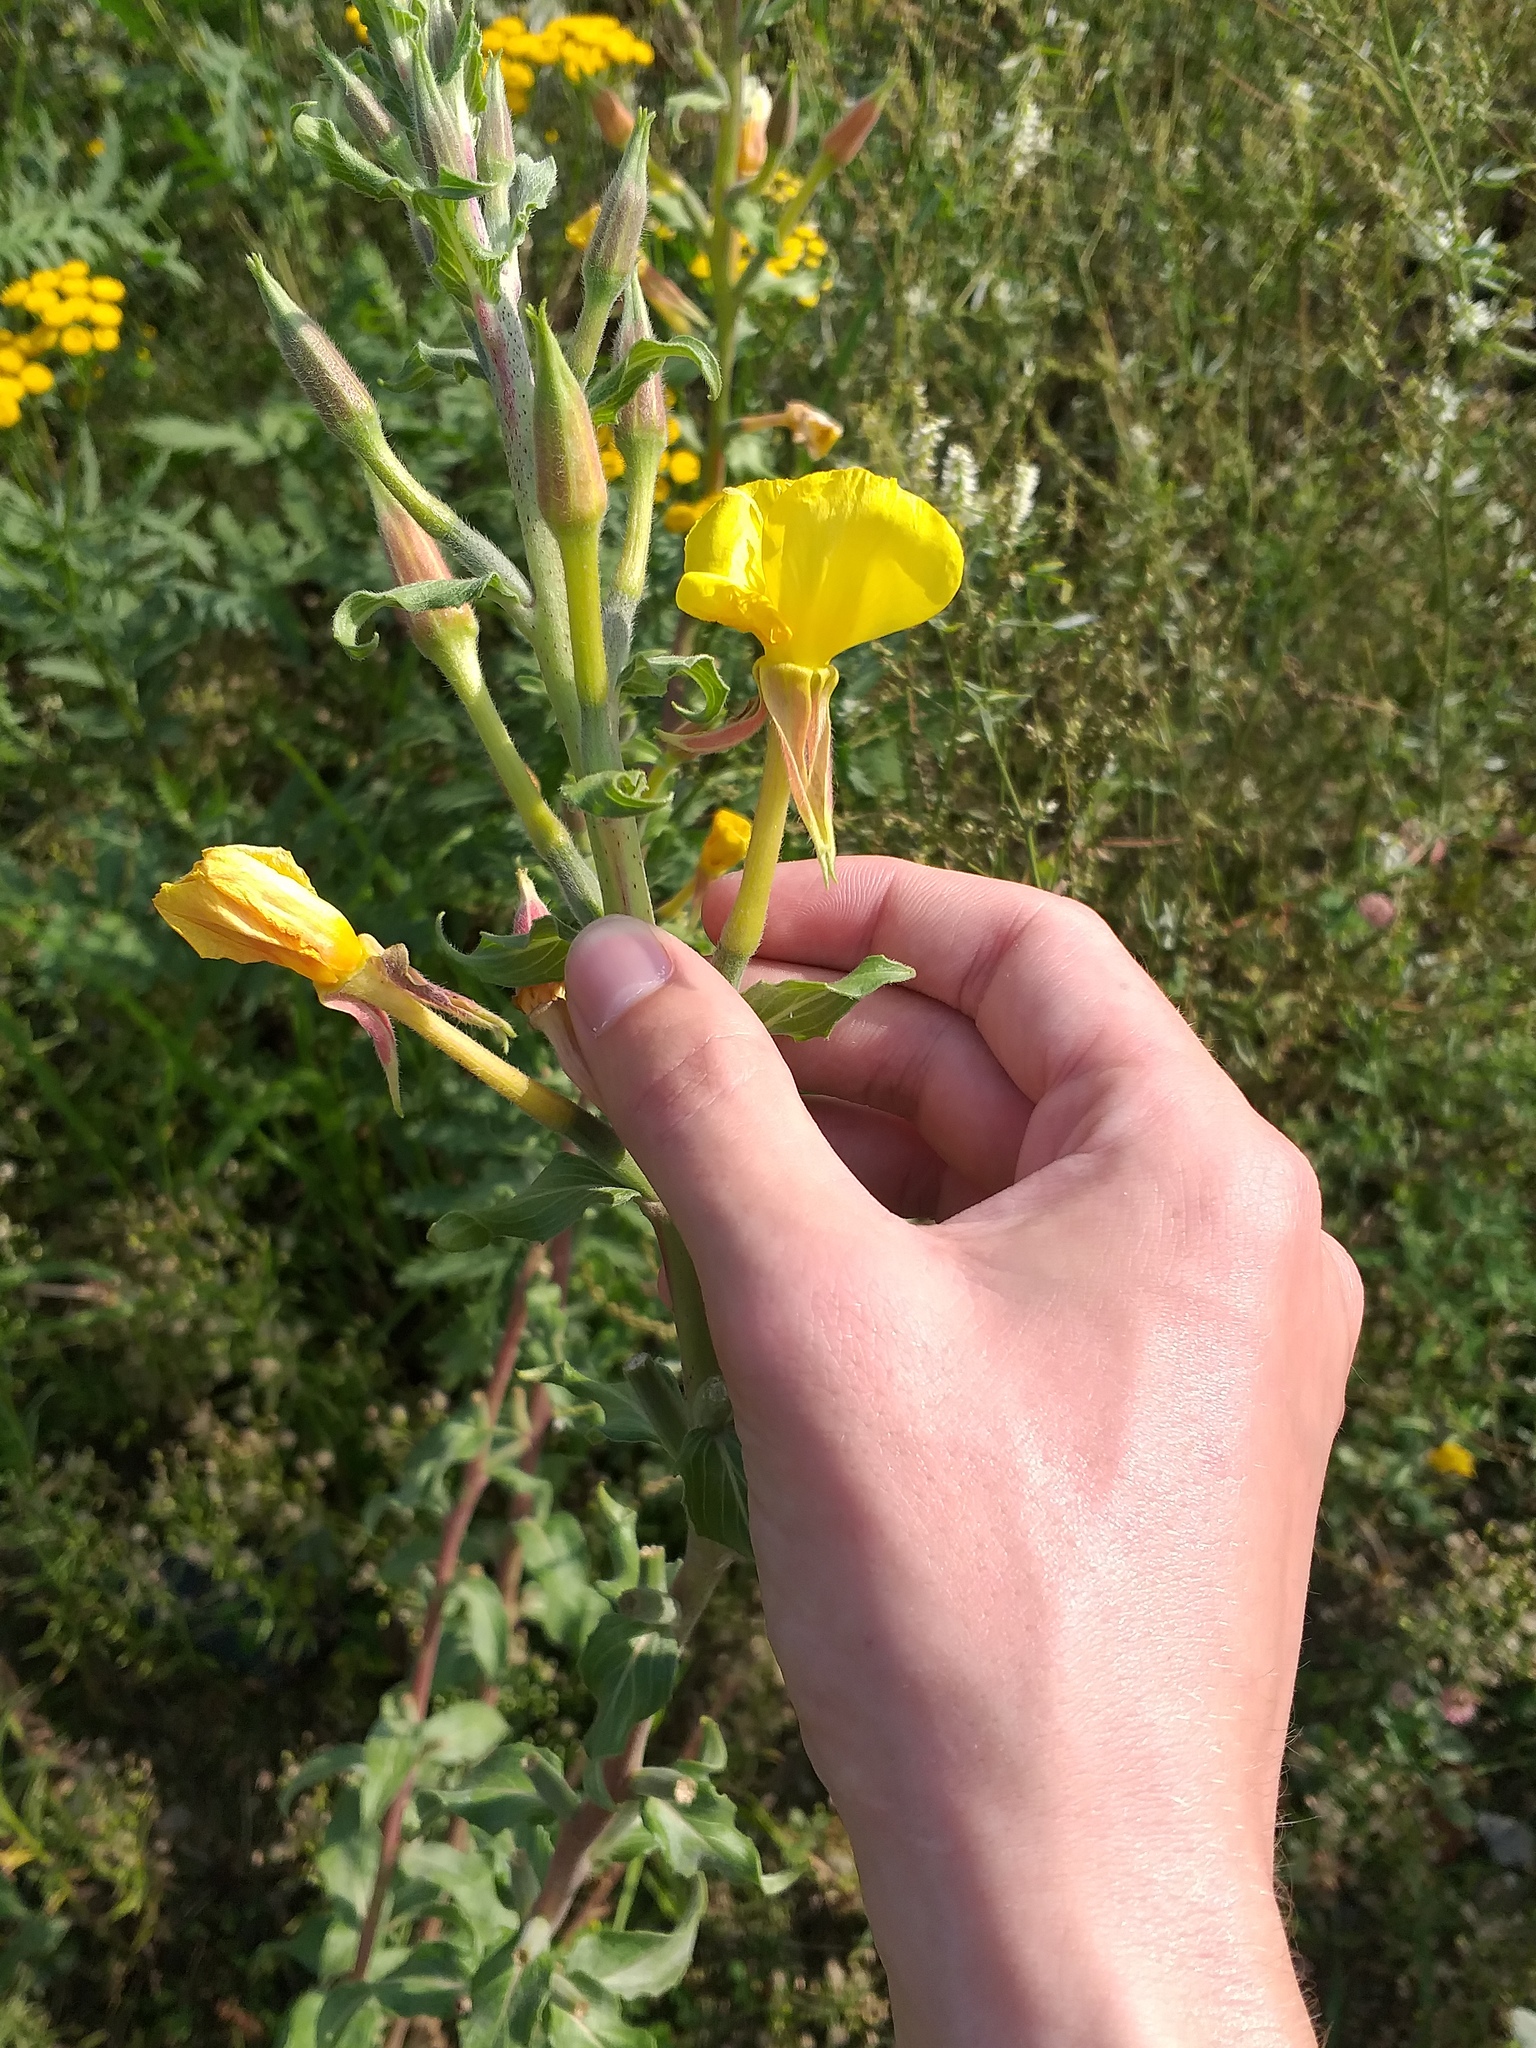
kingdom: Plantae
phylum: Tracheophyta
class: Magnoliopsida
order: Myrtales
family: Onagraceae
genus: Oenothera
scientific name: Oenothera villosa
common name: Hairy evening-primrose
